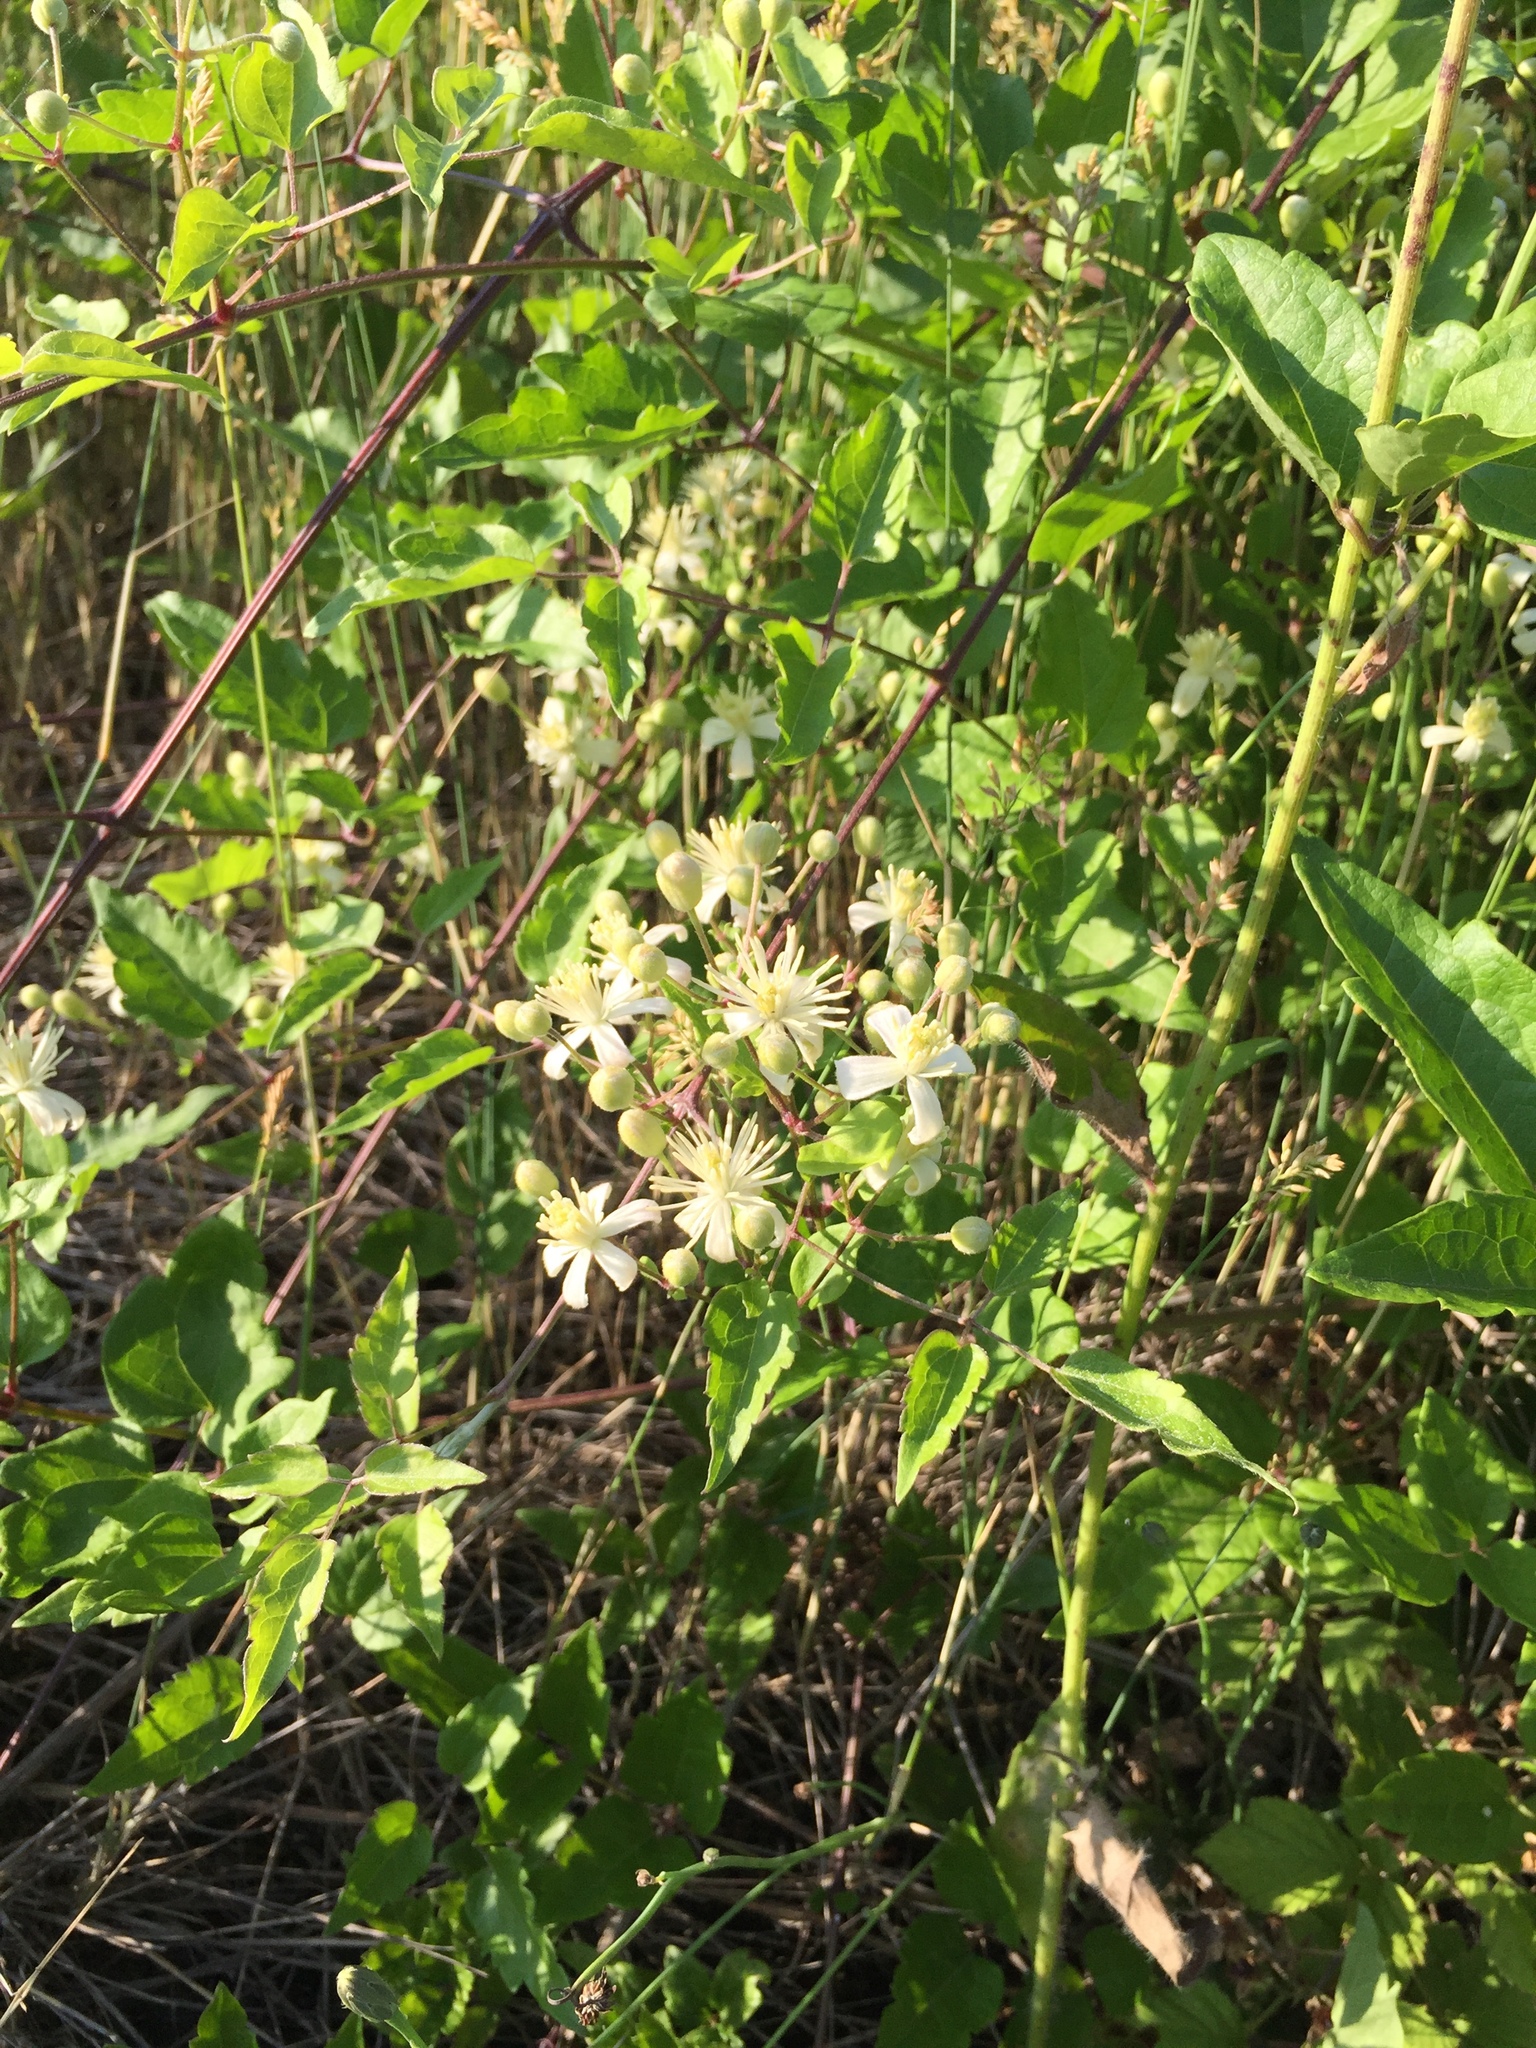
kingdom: Plantae
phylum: Tracheophyta
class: Magnoliopsida
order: Ranunculales
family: Ranunculaceae
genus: Clematis
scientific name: Clematis vitalba
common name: Evergreen clematis
